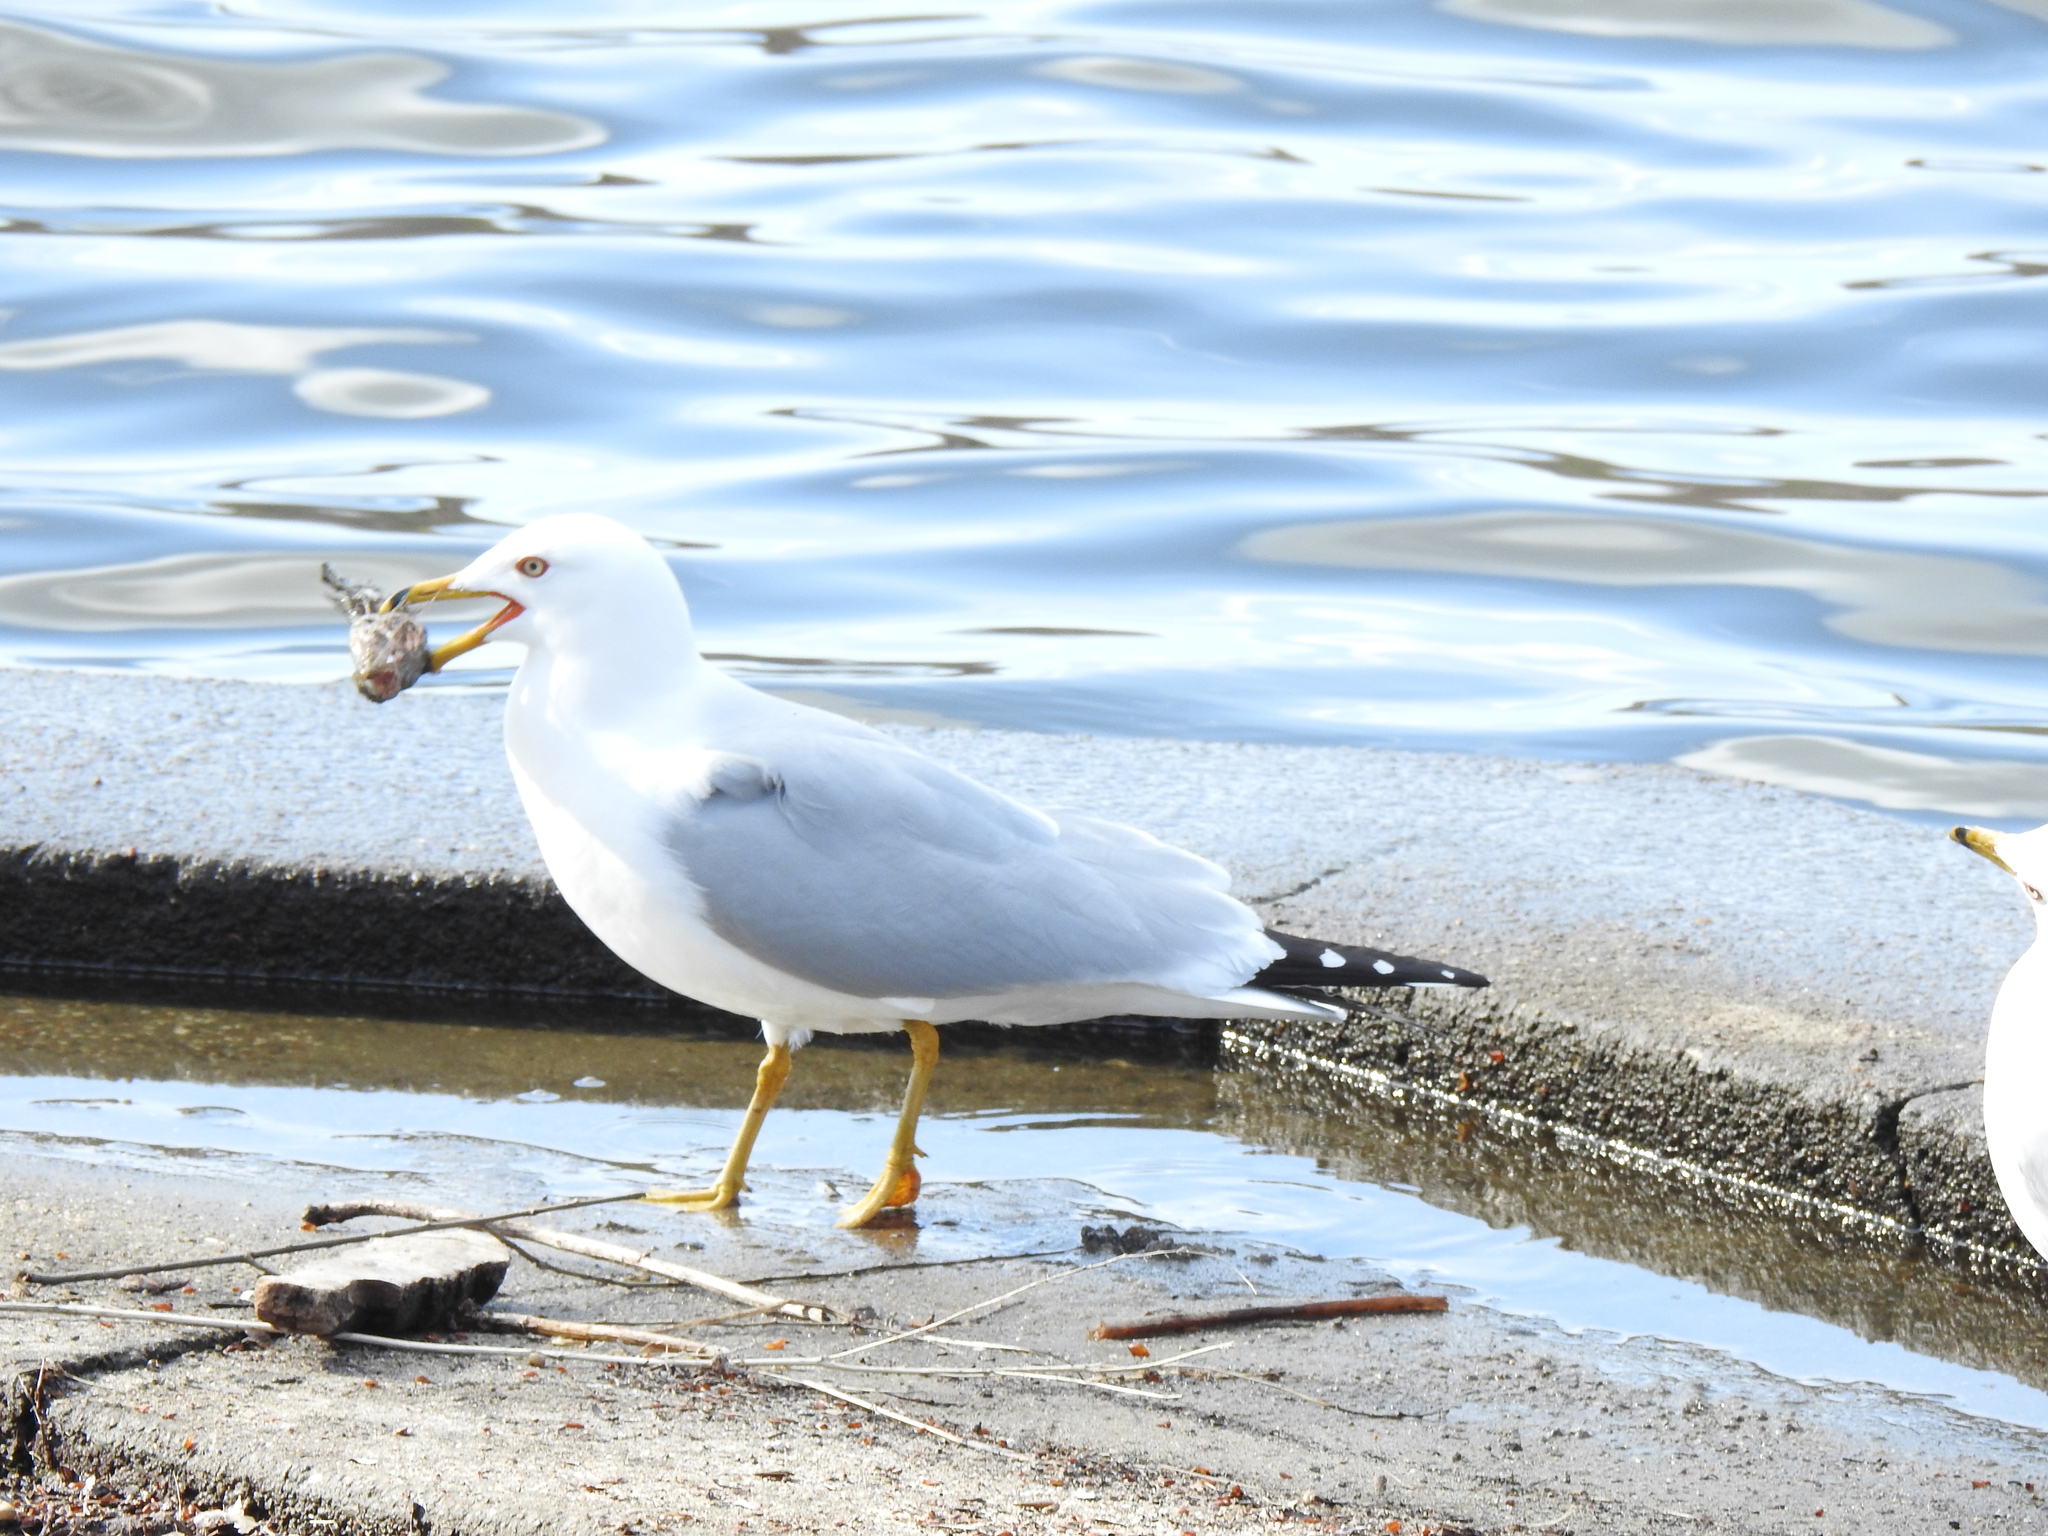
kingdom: Animalia
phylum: Chordata
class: Aves
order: Charadriiformes
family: Laridae
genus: Larus
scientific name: Larus delawarensis
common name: Ring-billed gull
